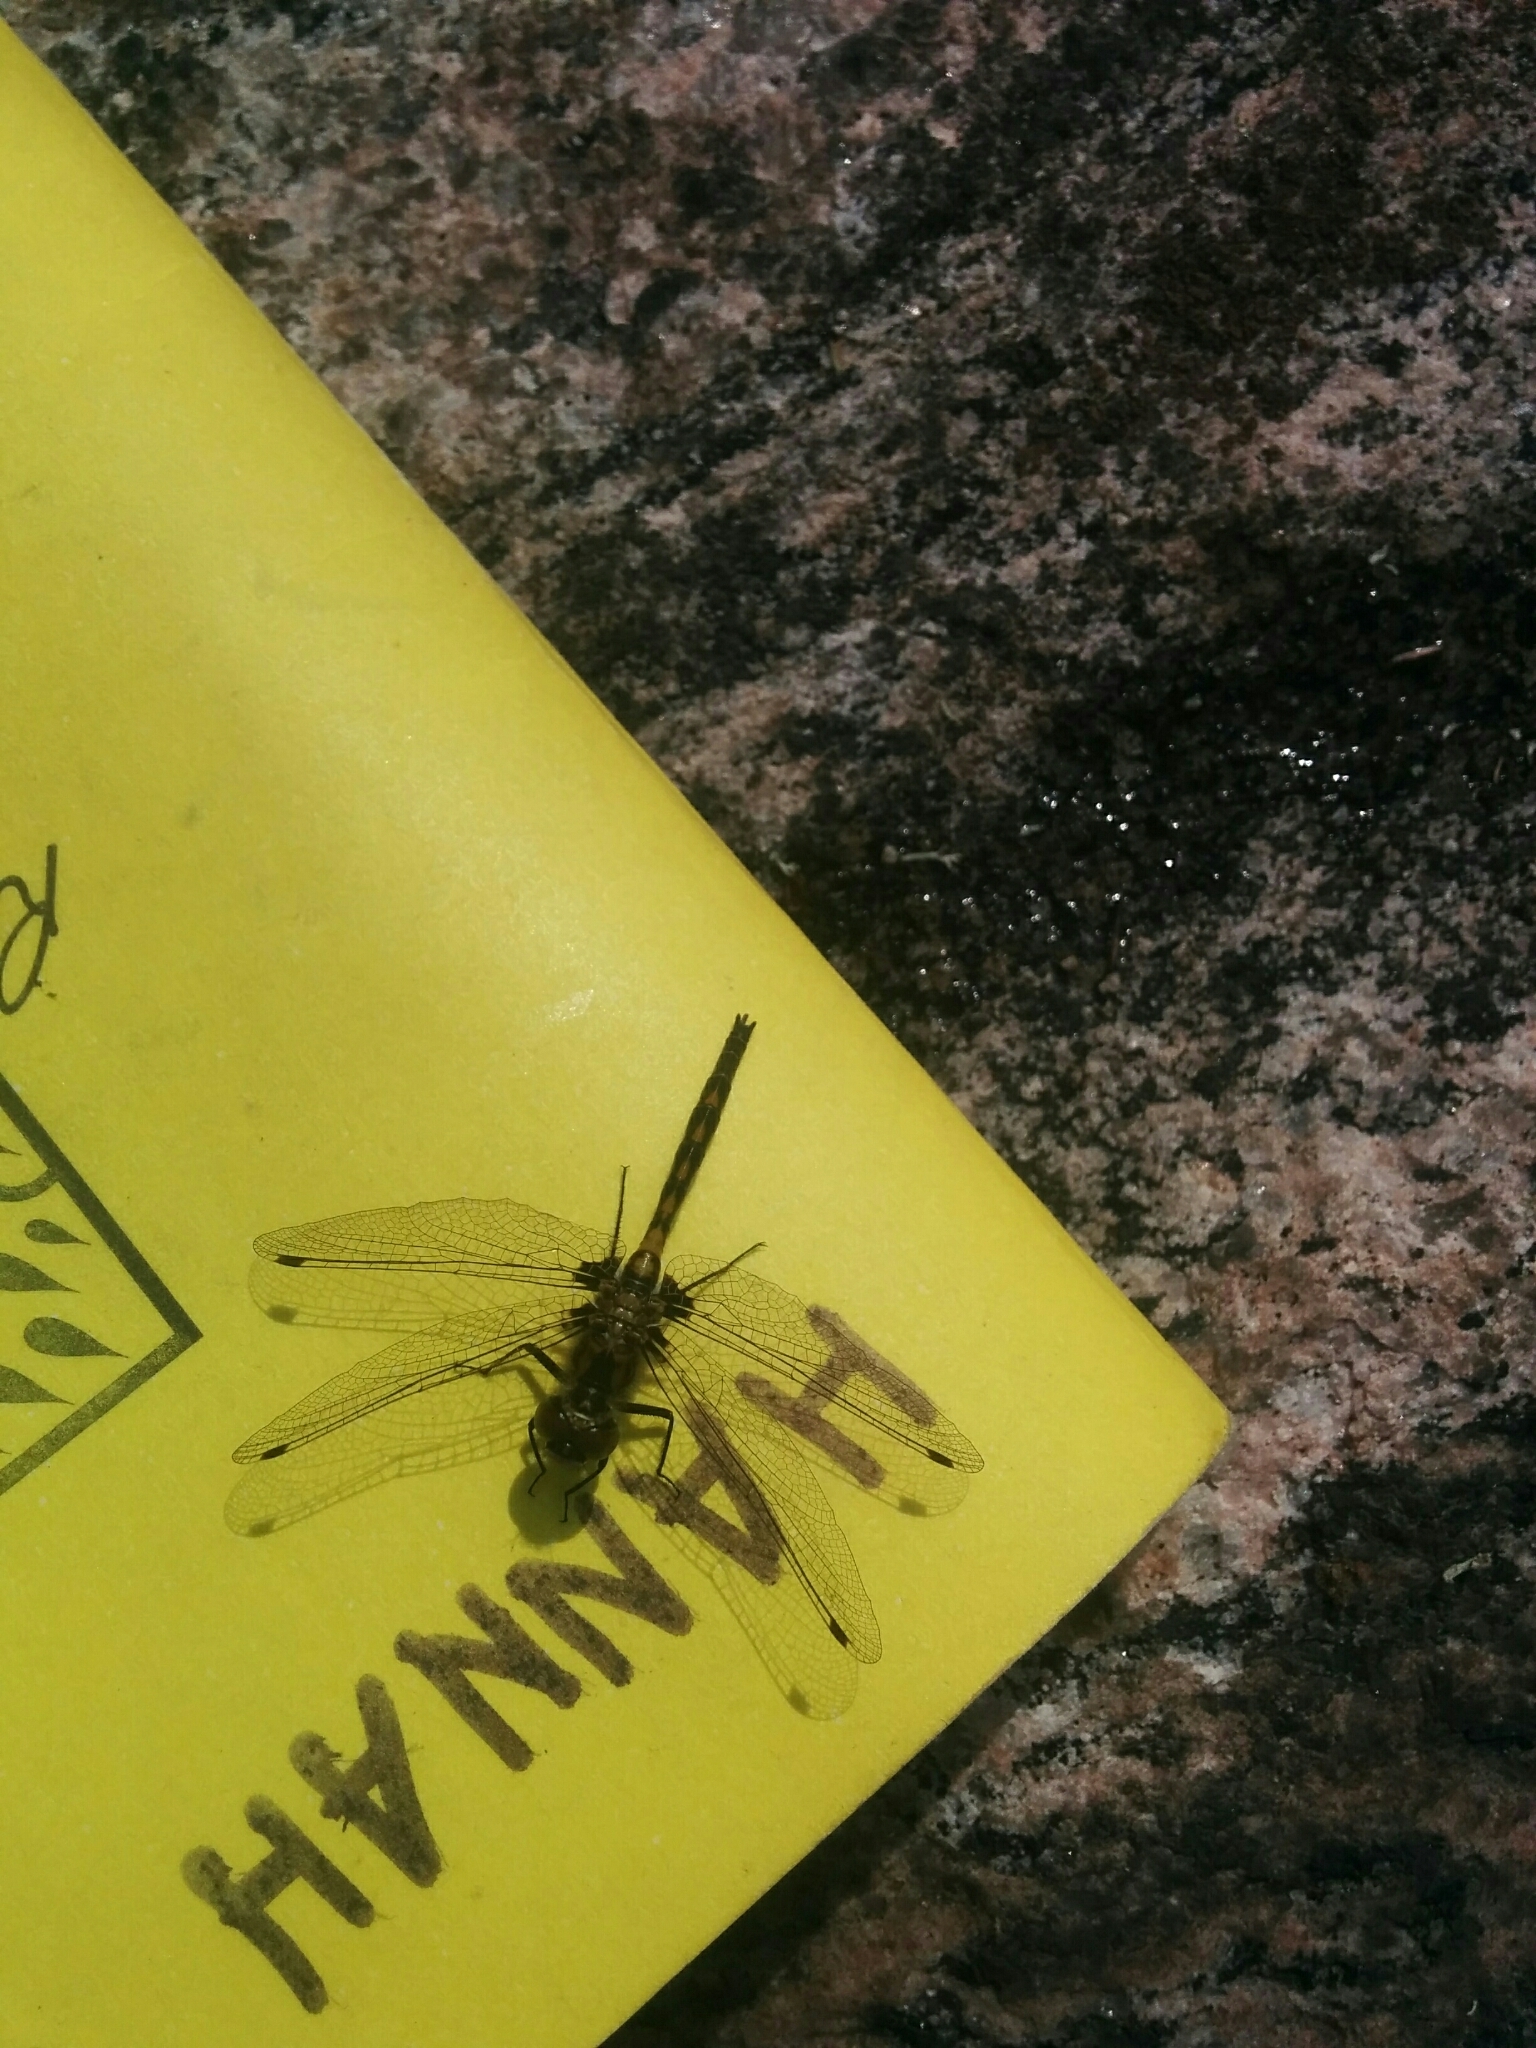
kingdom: Animalia
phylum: Arthropoda
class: Insecta
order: Odonata
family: Libellulidae
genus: Leucorrhinia
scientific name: Leucorrhinia hudsonica
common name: Hudsonian whiteface
